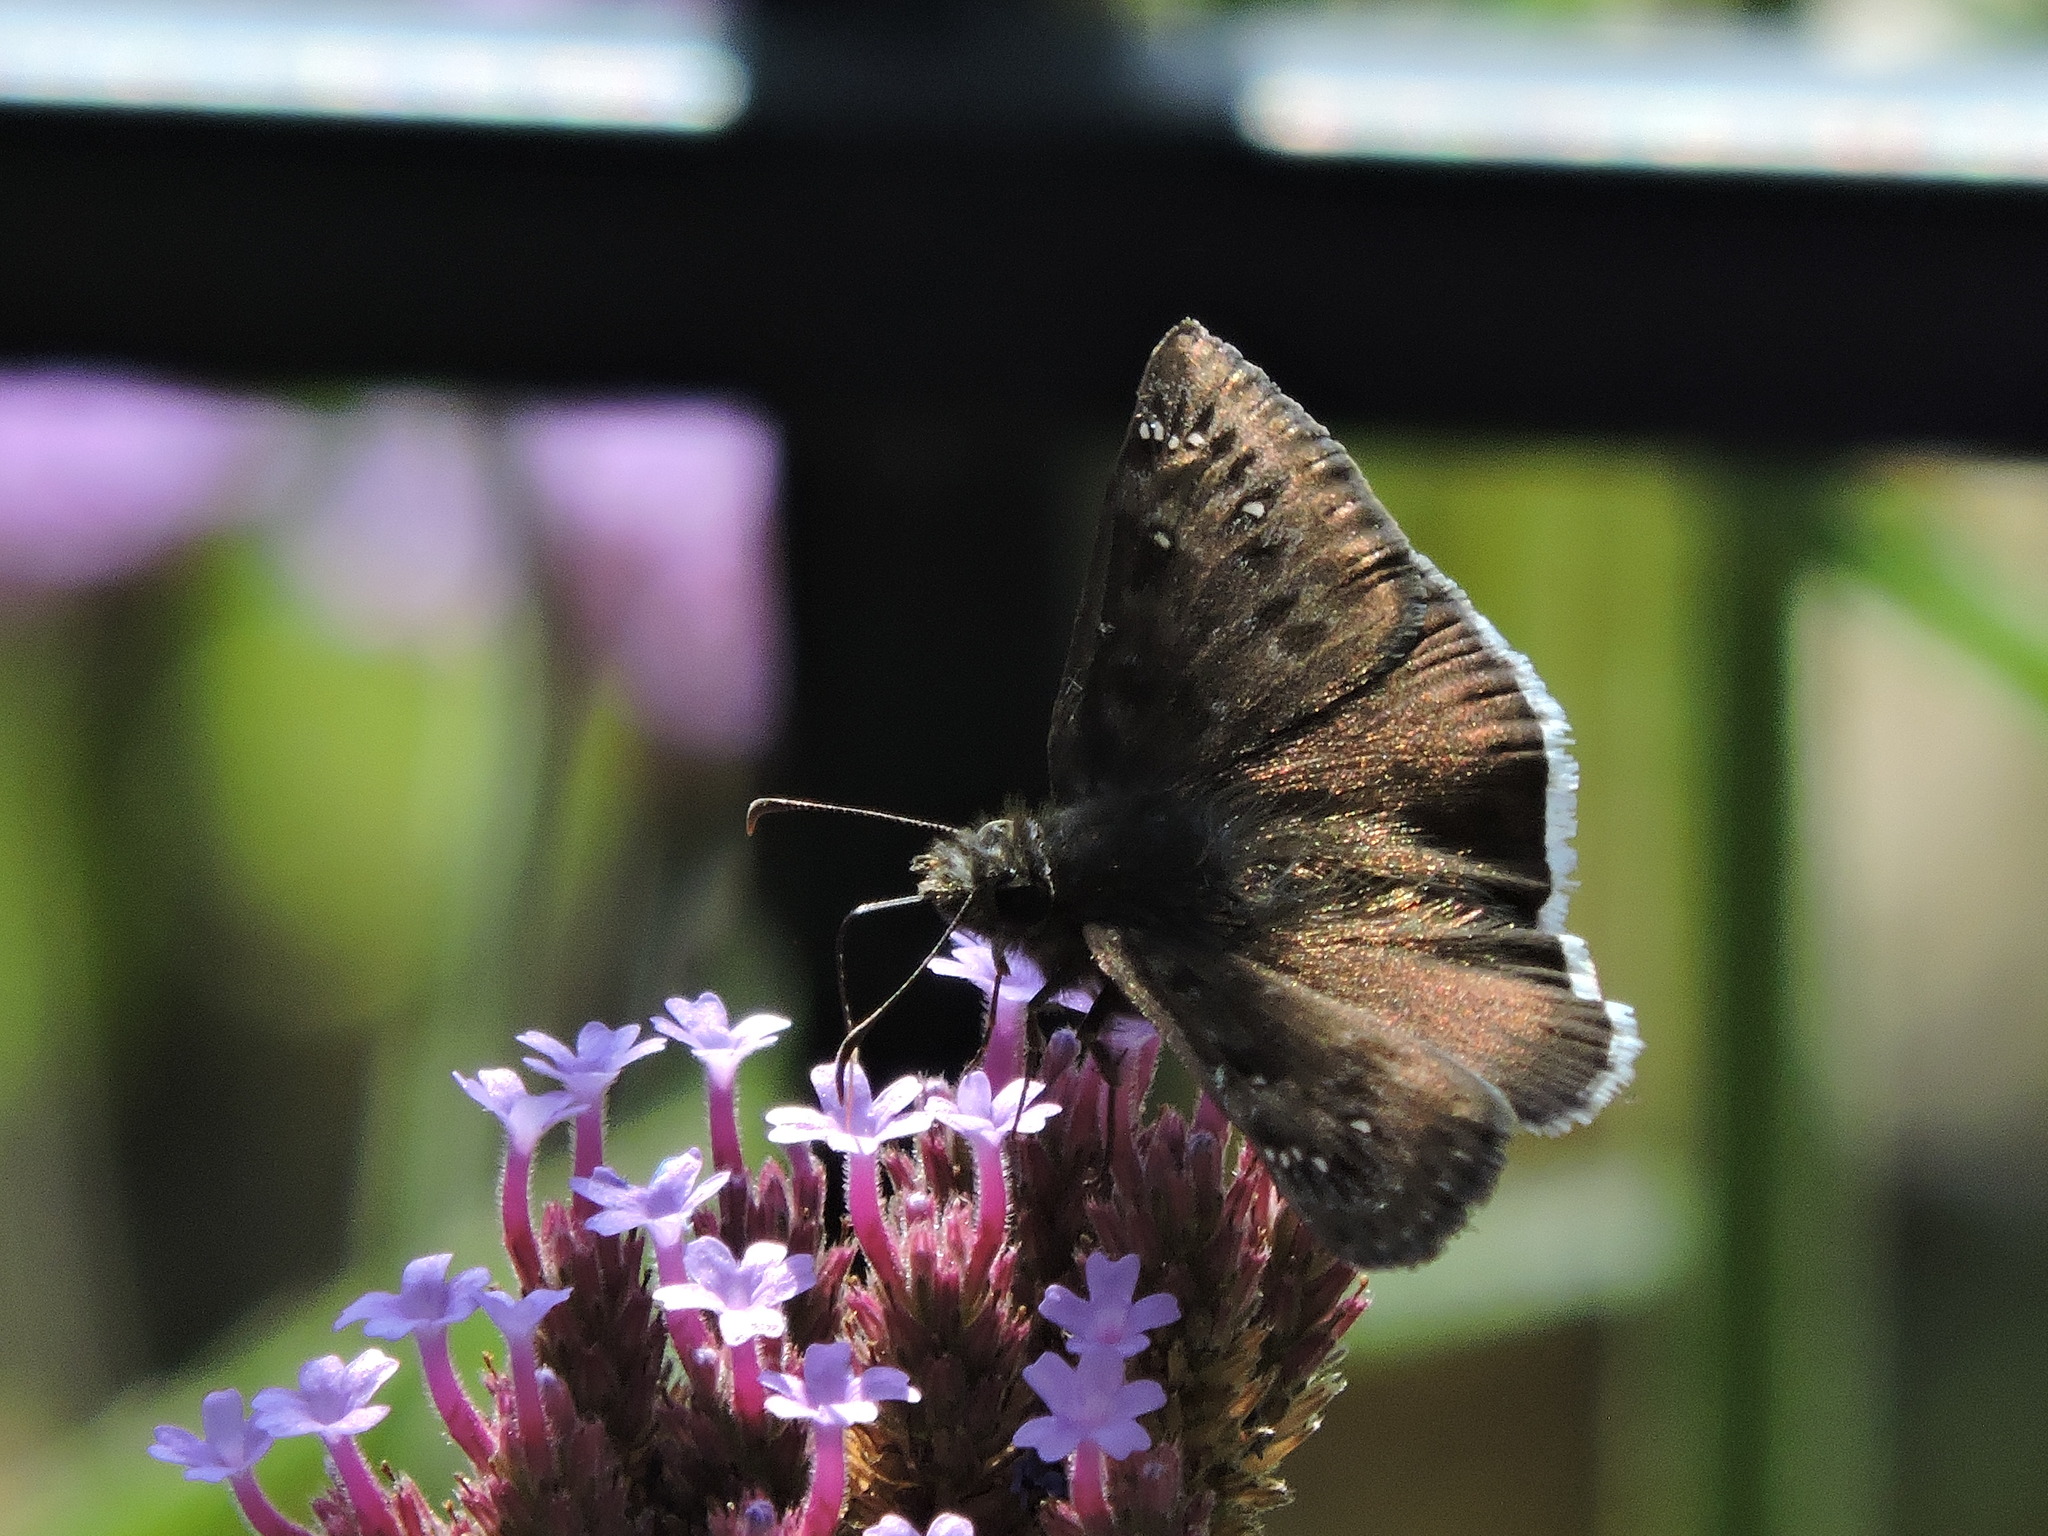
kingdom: Animalia
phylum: Arthropoda
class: Insecta
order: Lepidoptera
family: Hesperiidae
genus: Erynnis
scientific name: Erynnis tristis
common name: Mournful duskywing
